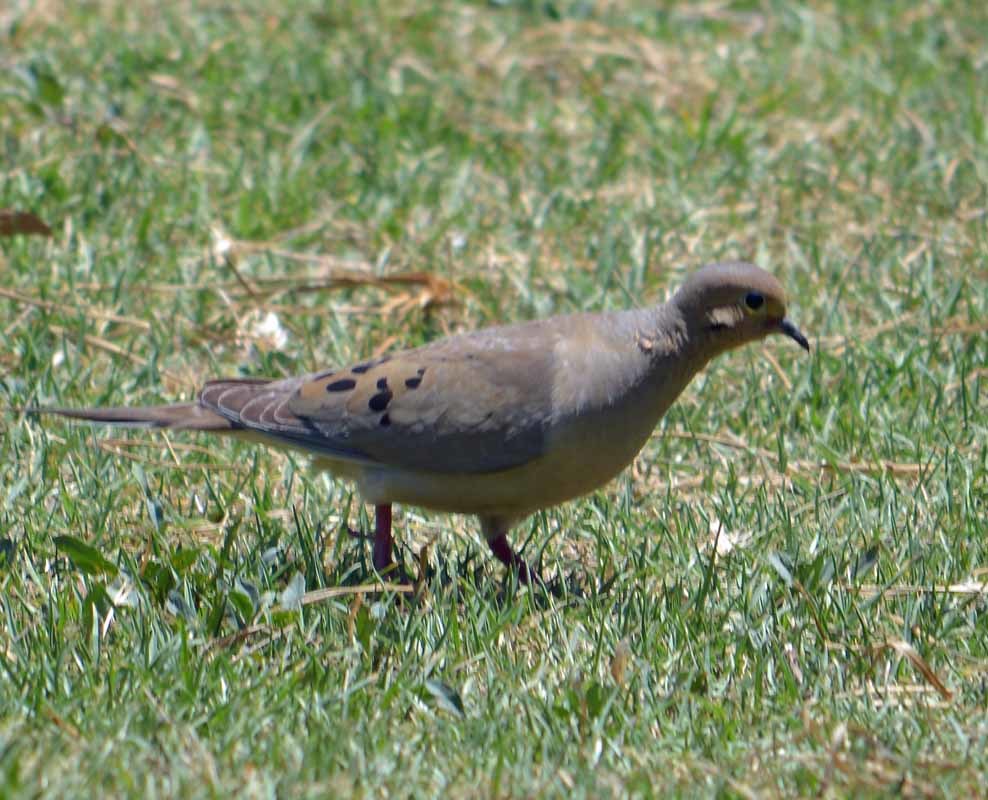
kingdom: Animalia
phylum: Chordata
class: Aves
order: Columbiformes
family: Columbidae
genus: Zenaida
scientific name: Zenaida macroura
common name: Mourning dove
